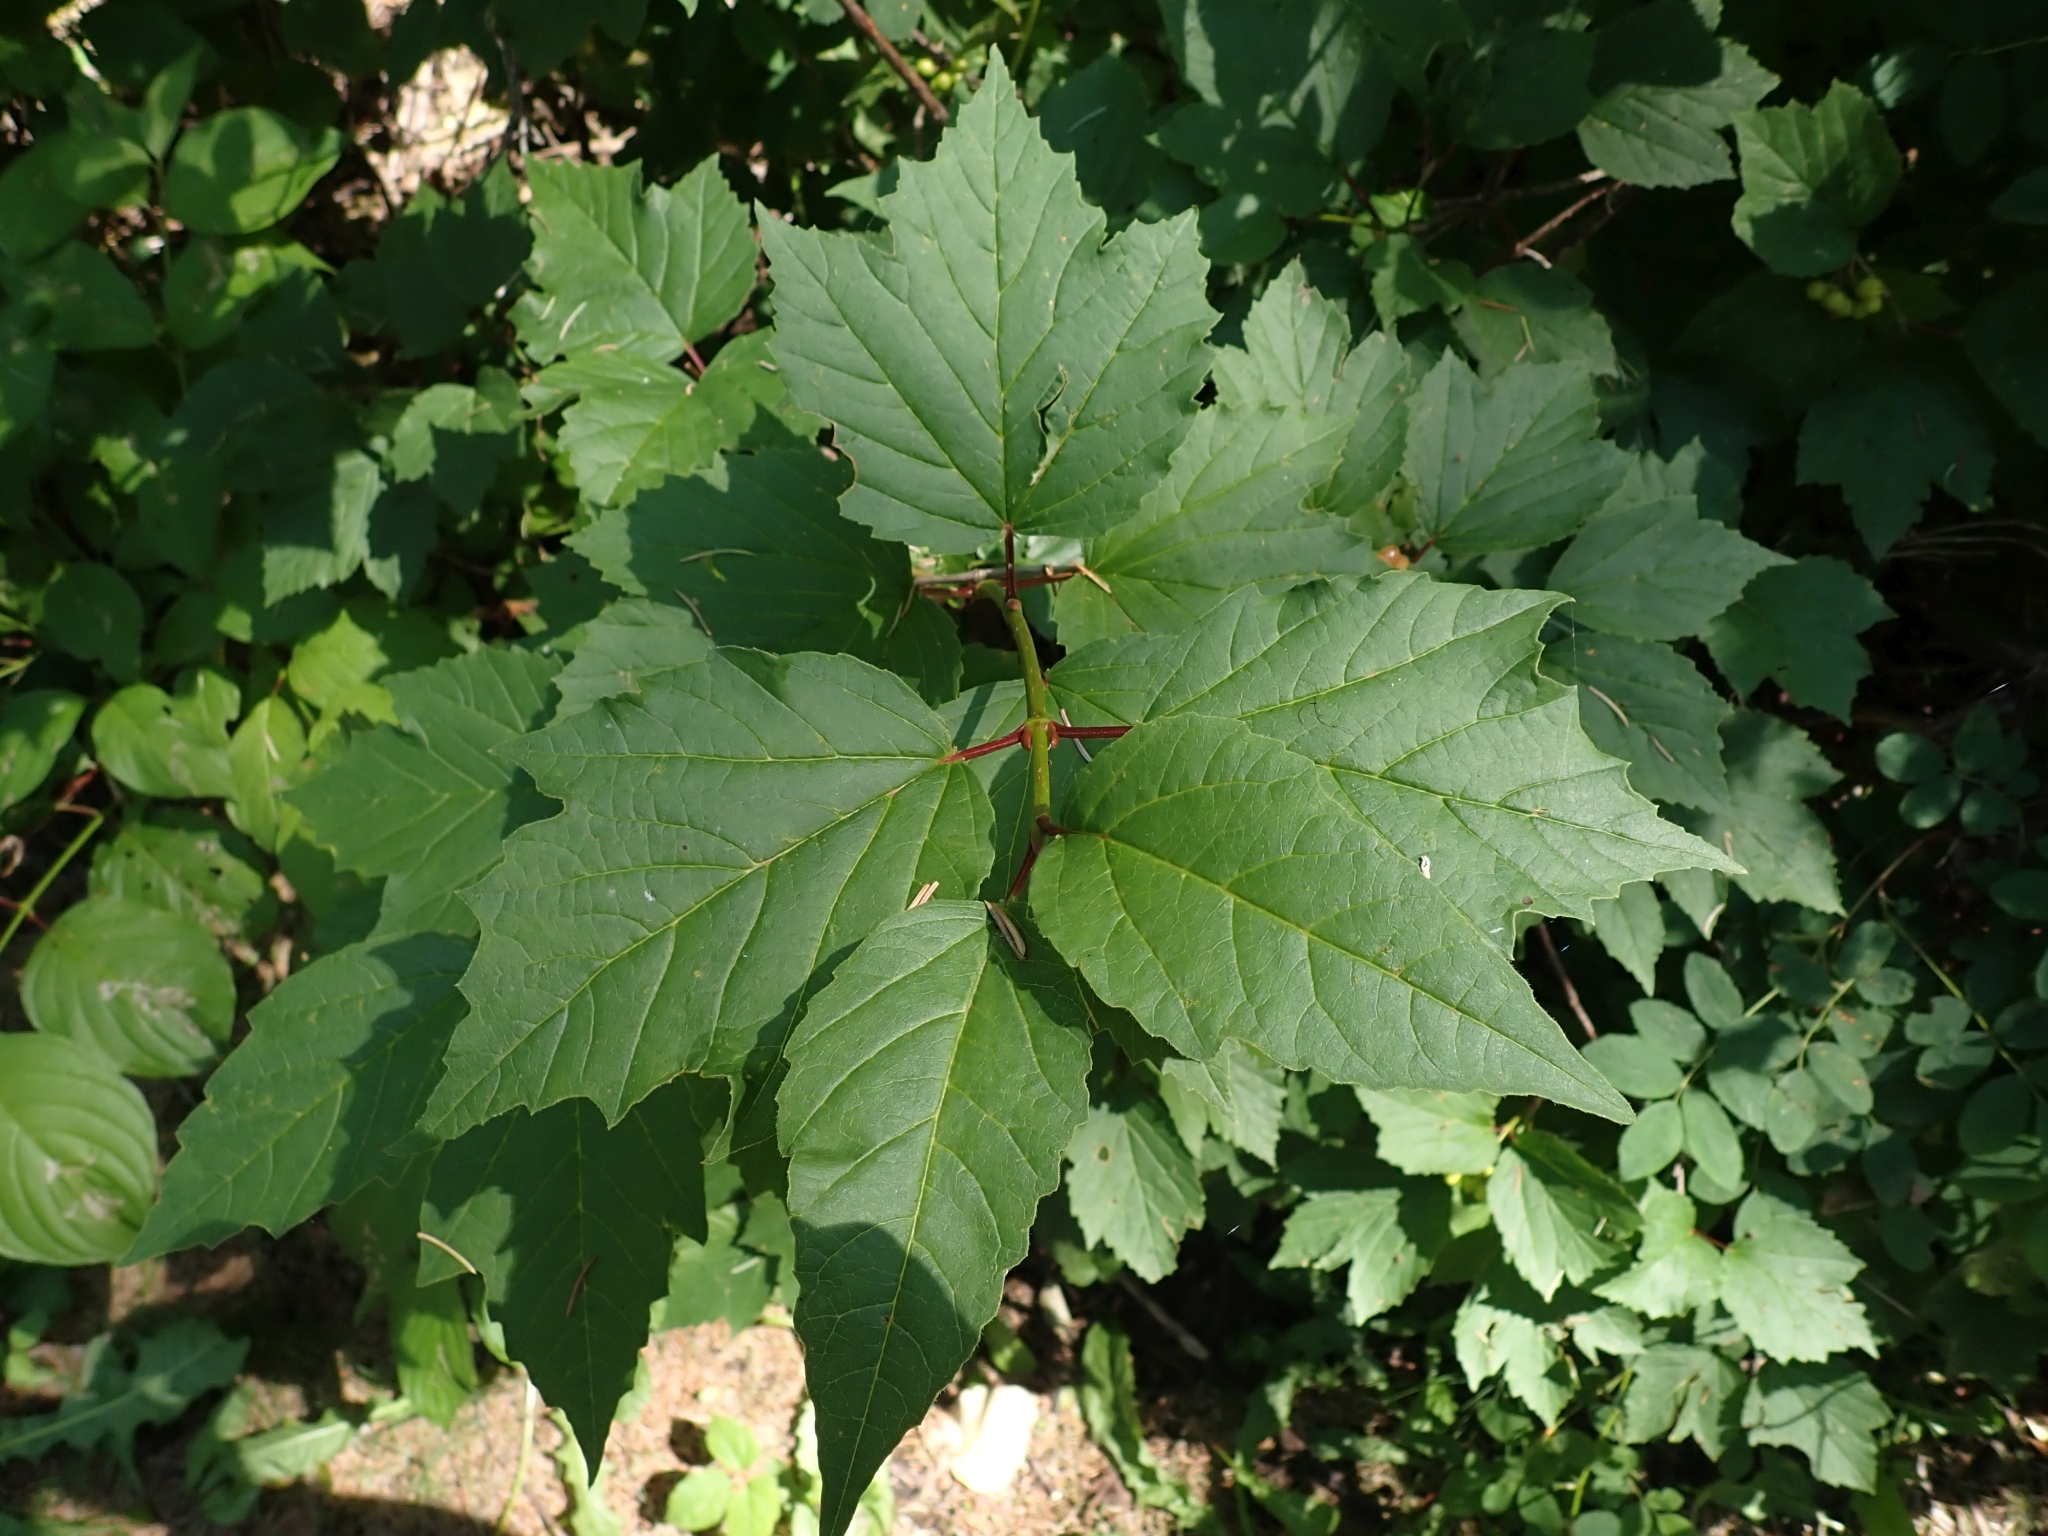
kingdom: Plantae
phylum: Tracheophyta
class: Magnoliopsida
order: Dipsacales
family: Viburnaceae
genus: Viburnum
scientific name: Viburnum edule
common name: Mooseberry
